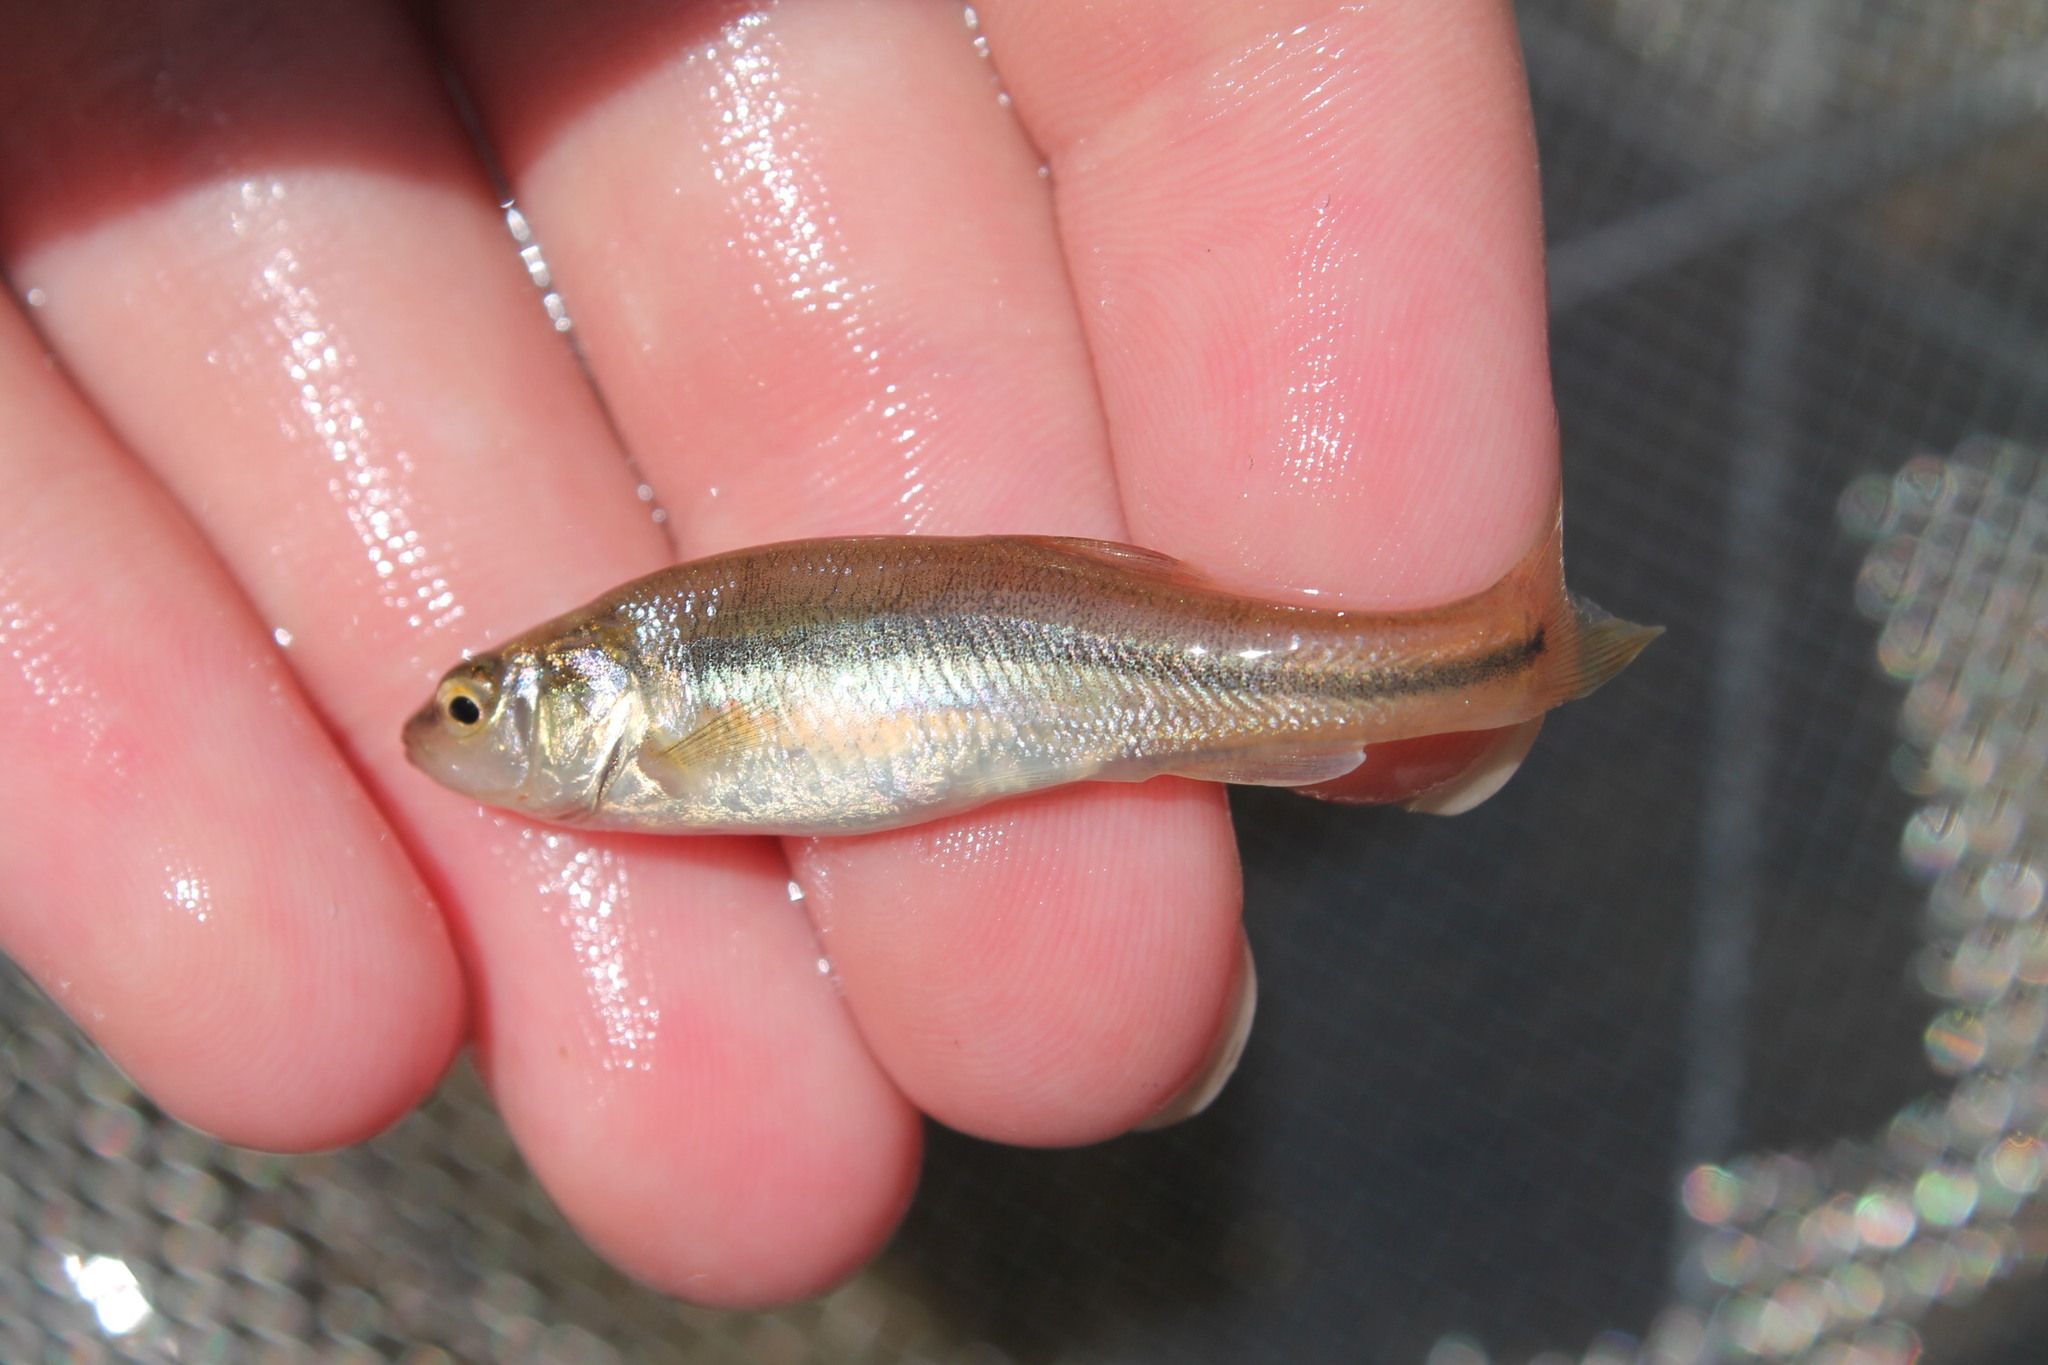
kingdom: Animalia
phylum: Chordata
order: Cypriniformes
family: Cyprinidae
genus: Pimephales
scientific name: Pimephales promelas
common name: Fathead minnow
